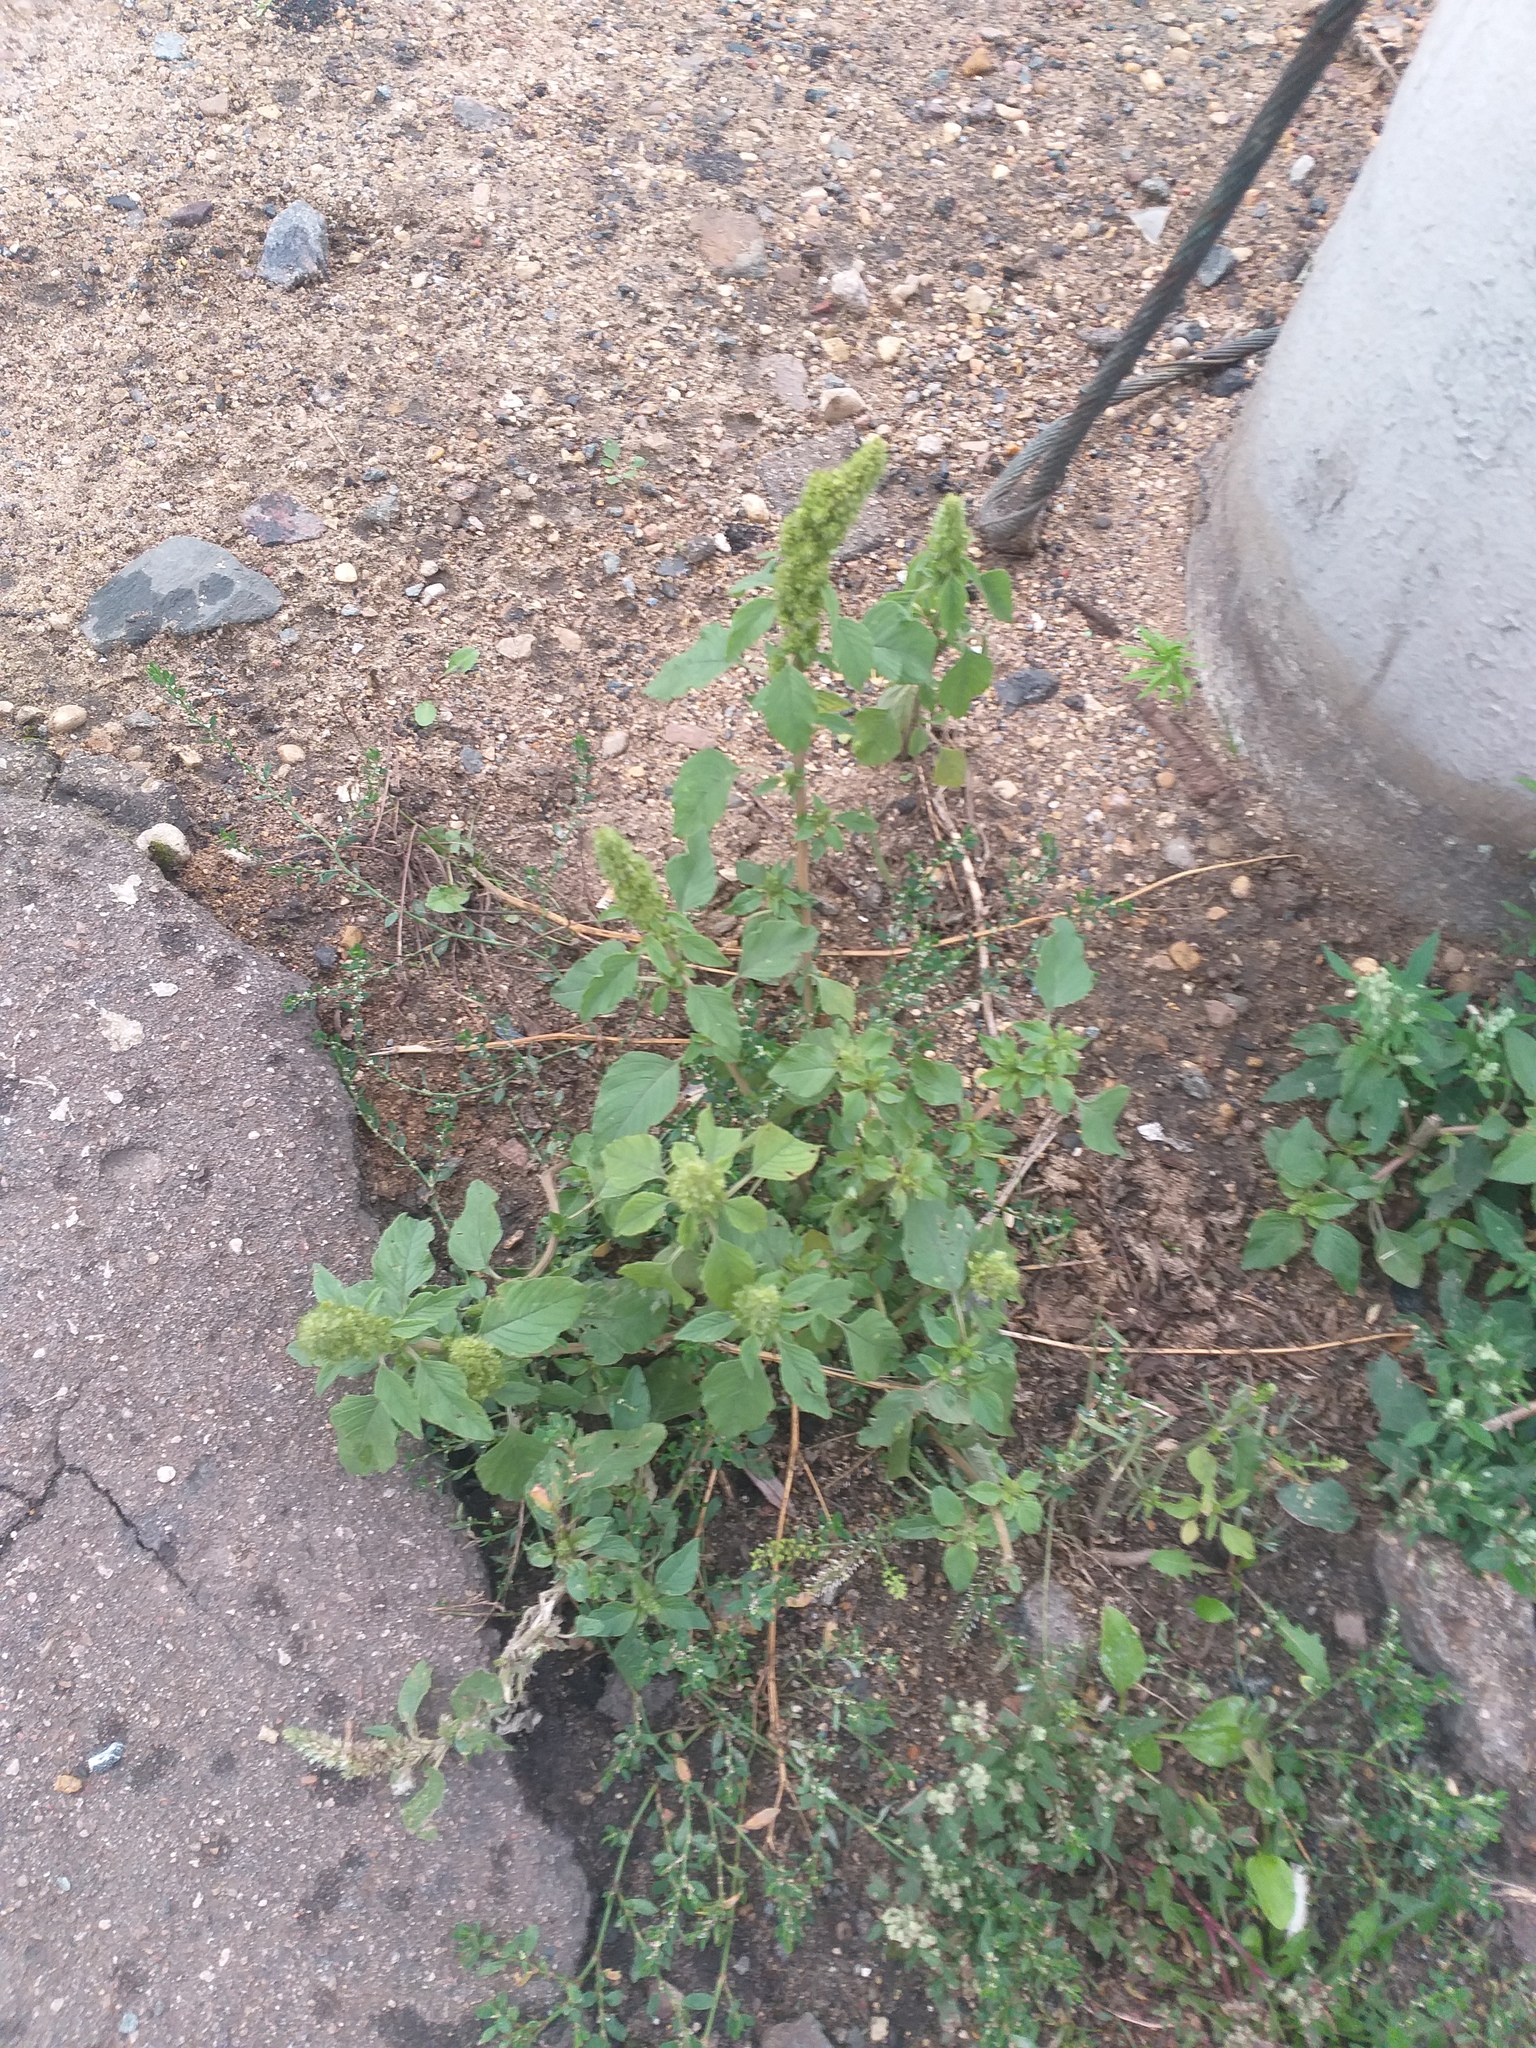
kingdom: Plantae
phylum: Tracheophyta
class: Magnoliopsida
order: Caryophyllales
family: Amaranthaceae
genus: Amaranthus
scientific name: Amaranthus retroflexus
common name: Redroot amaranth
